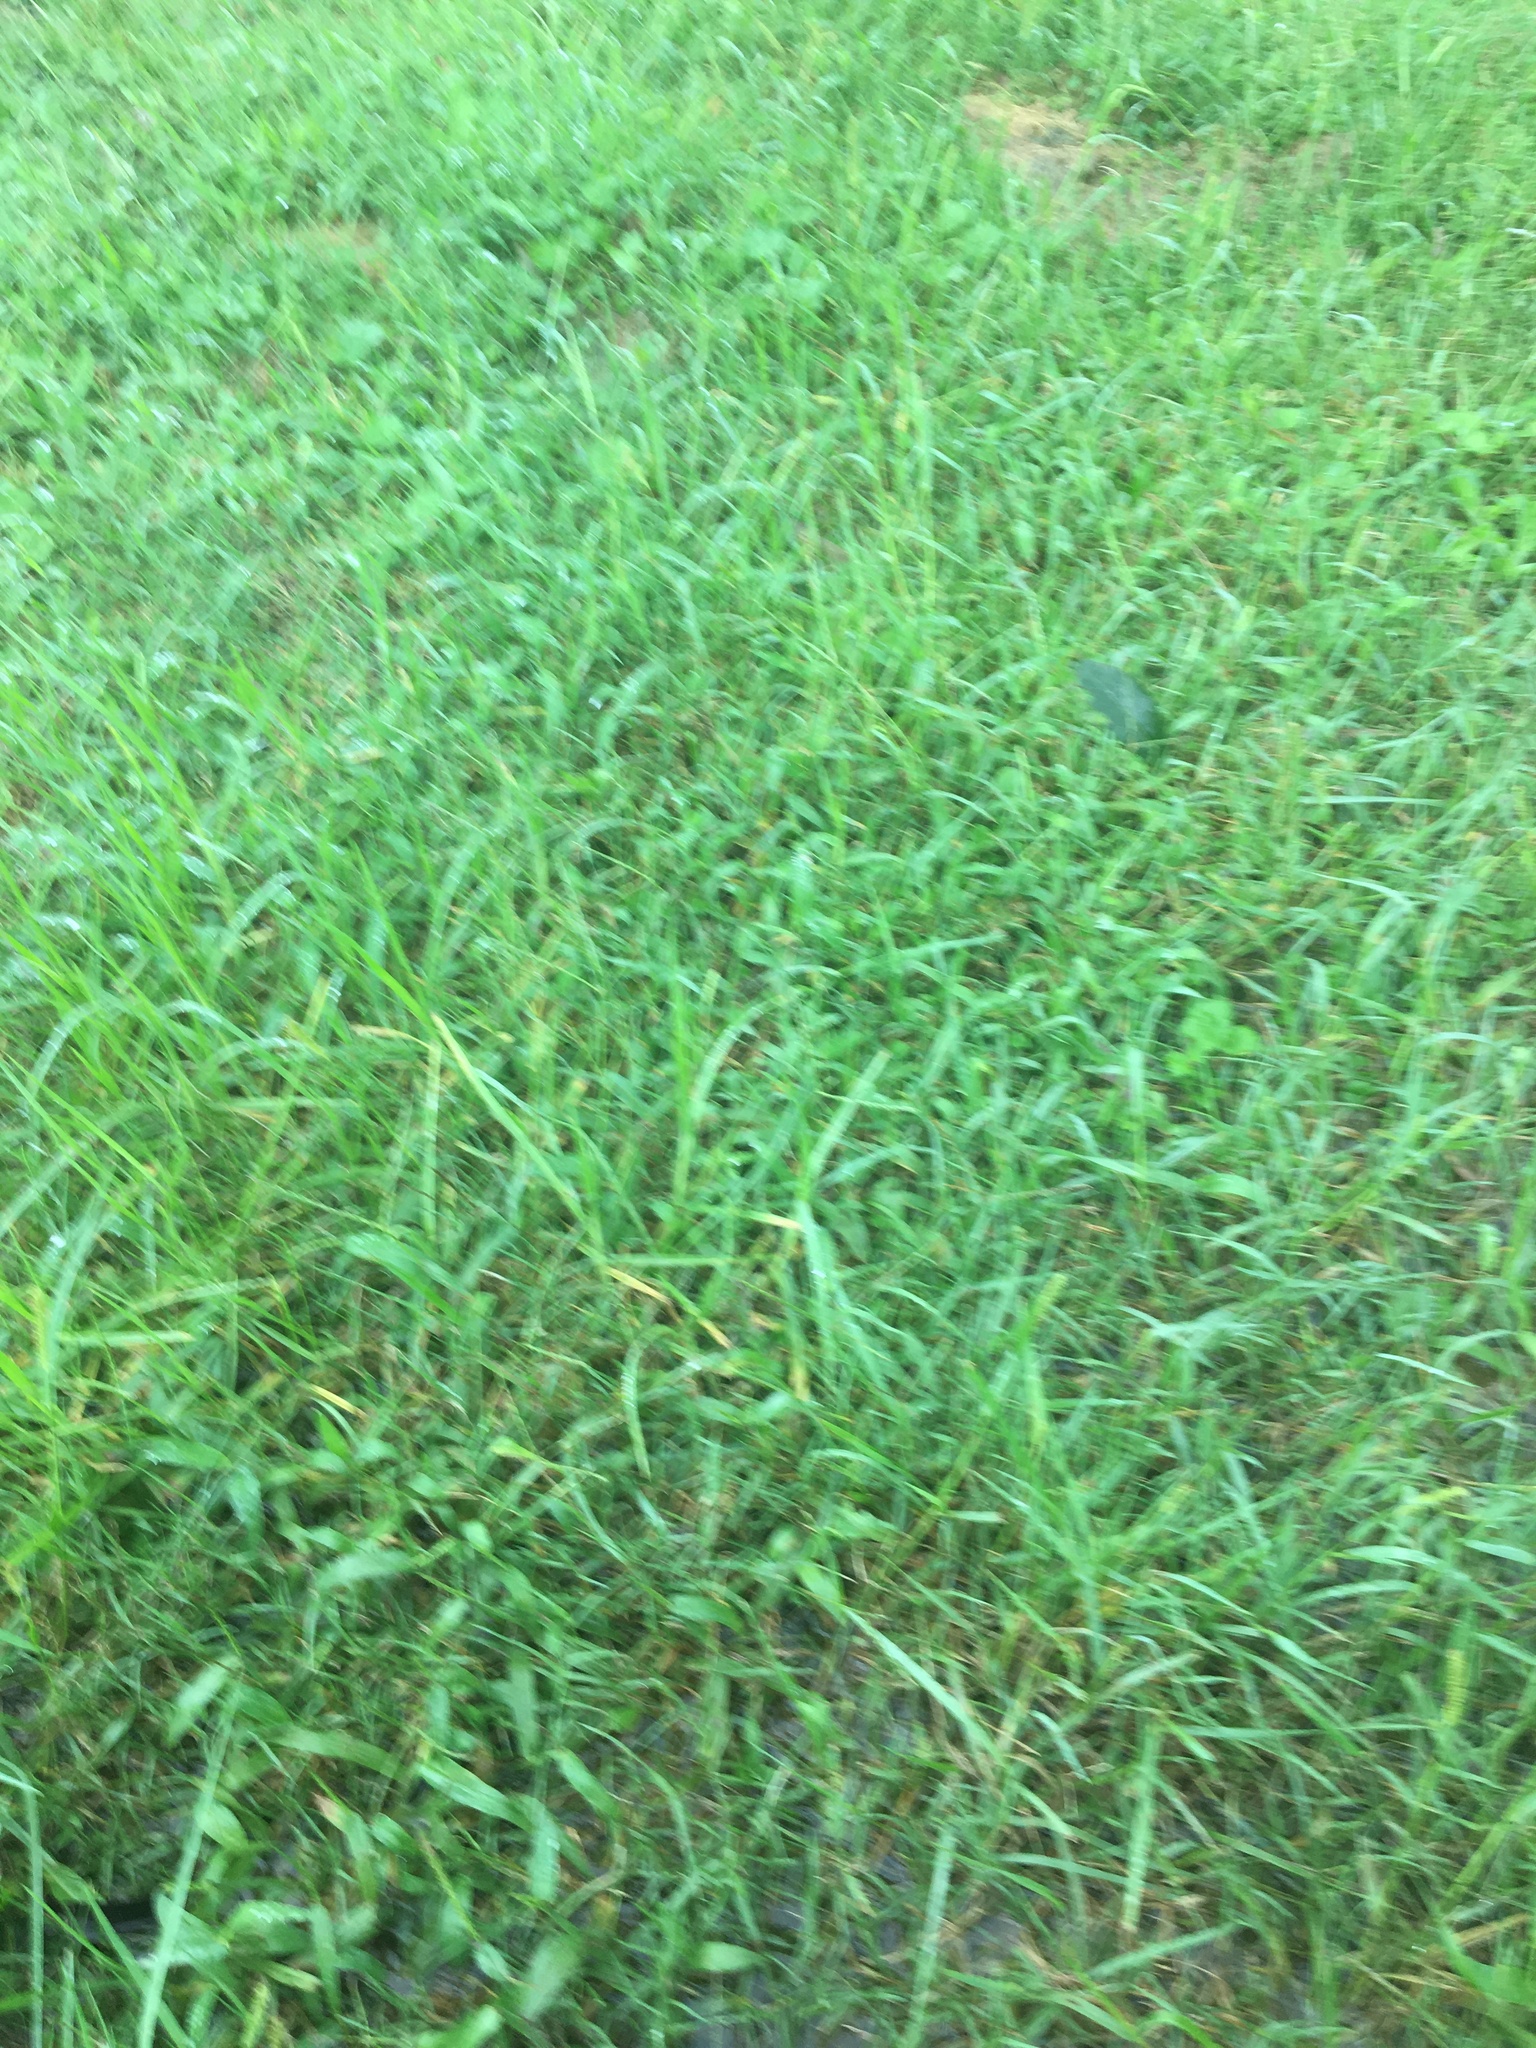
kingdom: Plantae
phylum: Tracheophyta
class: Liliopsida
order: Poales
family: Poaceae
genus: Setaria
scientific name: Setaria parviflora
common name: Knotroot bristle-grass
